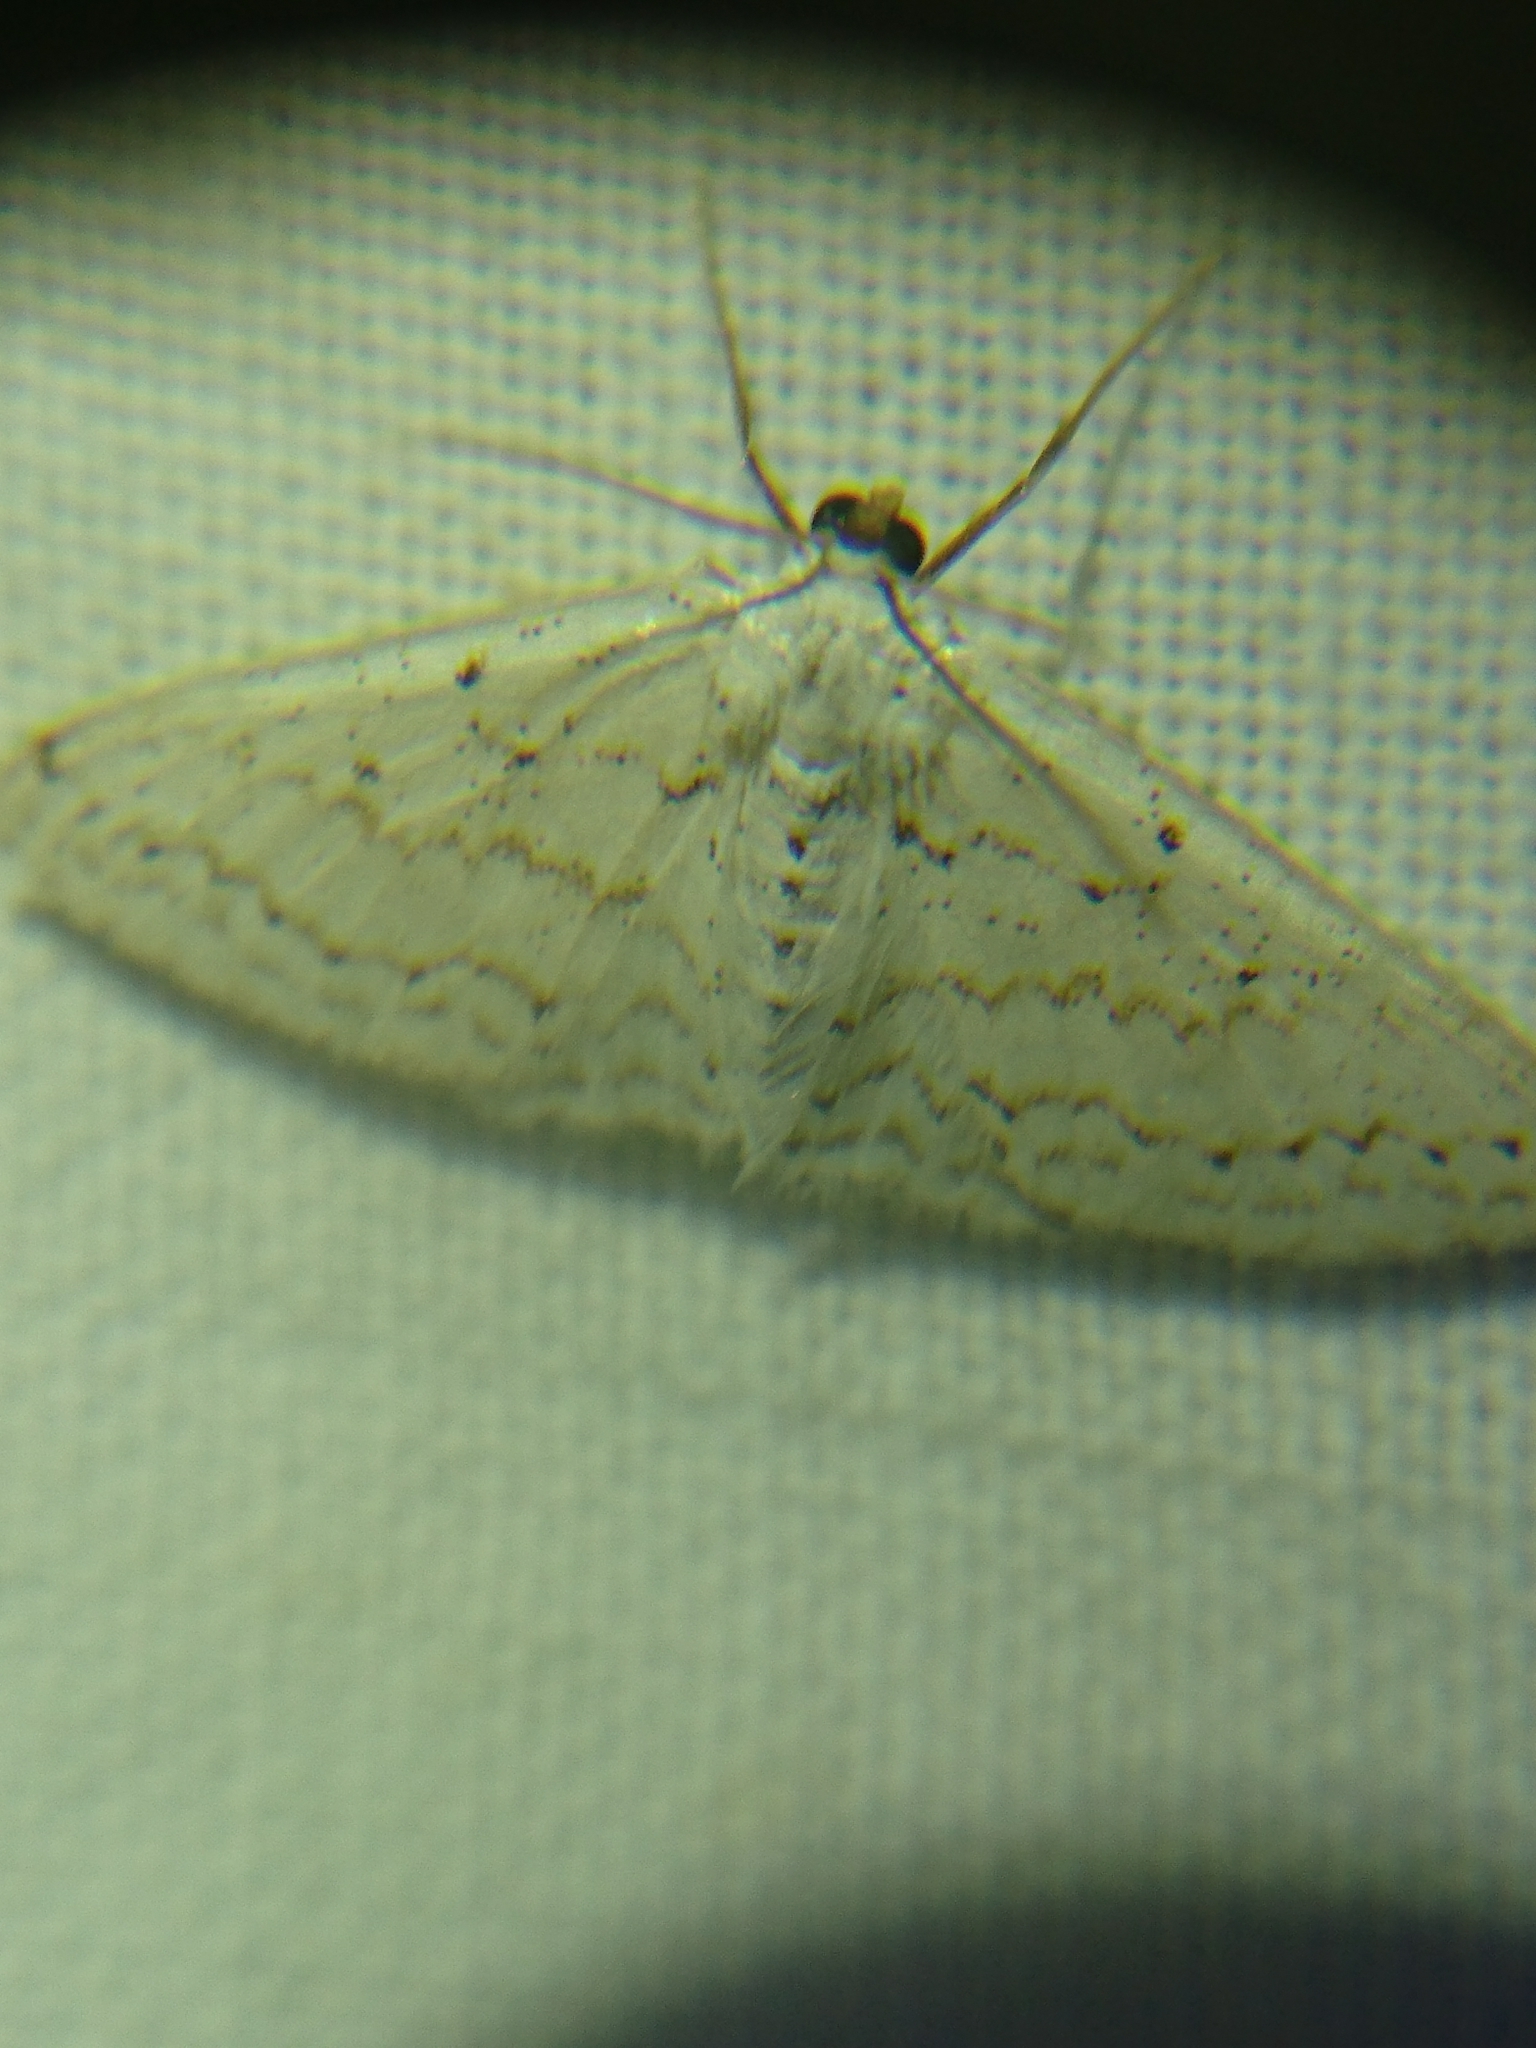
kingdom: Animalia
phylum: Arthropoda
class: Insecta
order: Lepidoptera
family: Geometridae
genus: Idaea
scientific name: Idaea tacturata
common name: Dot-lined wave
